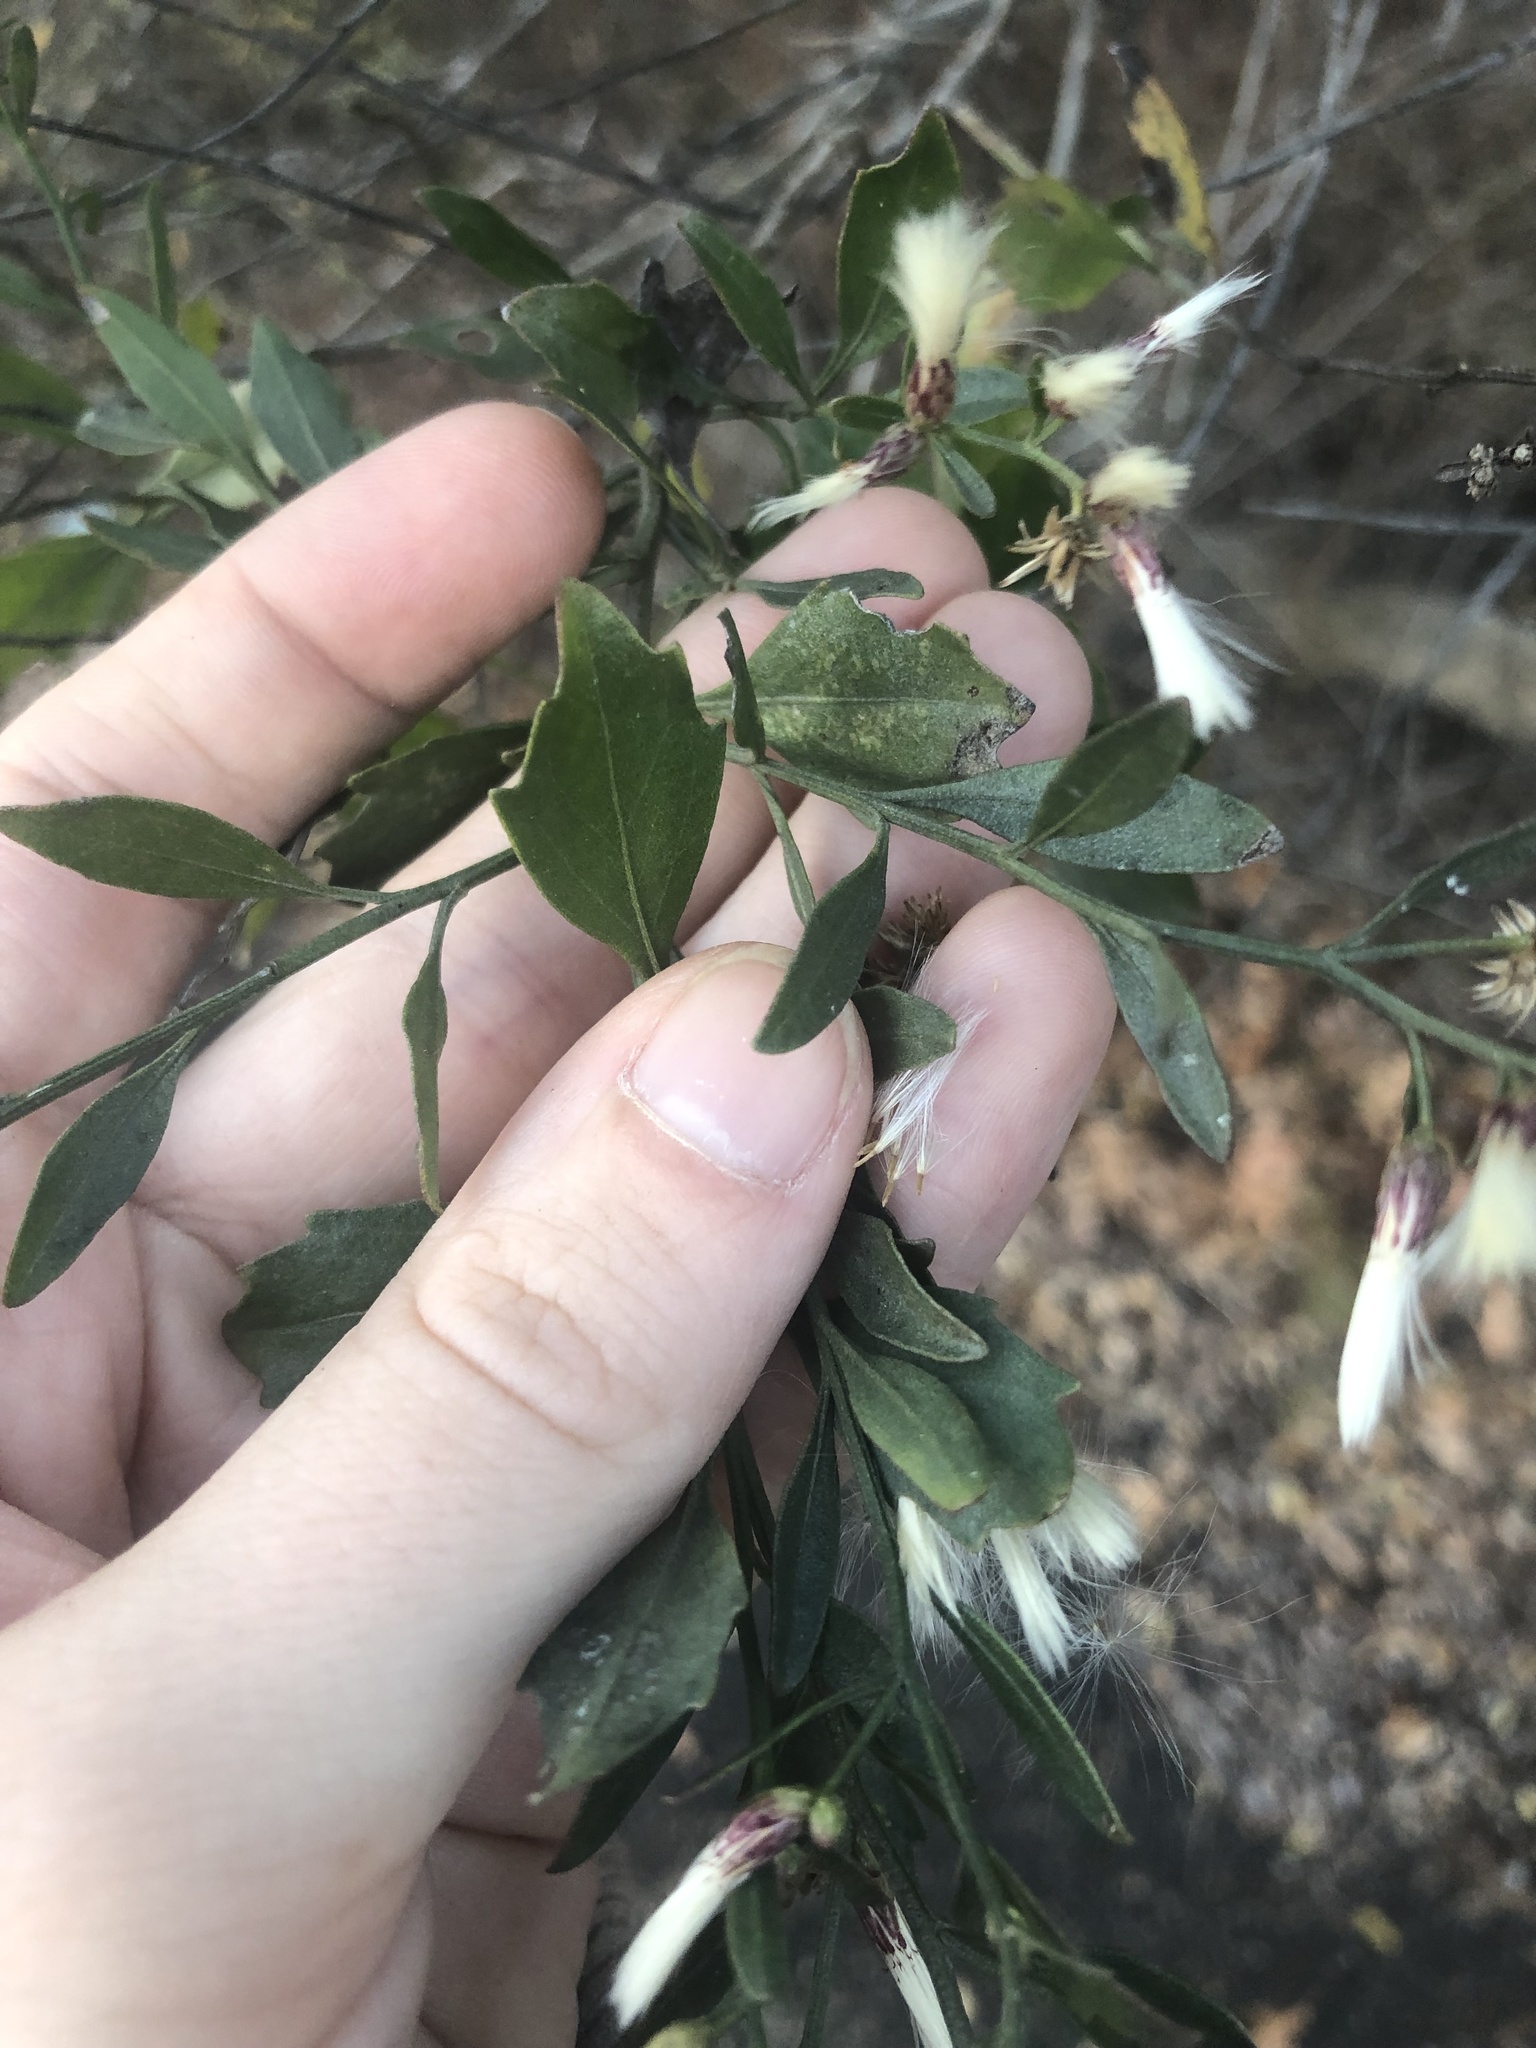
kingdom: Plantae
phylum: Tracheophyta
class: Magnoliopsida
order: Asterales
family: Asteraceae
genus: Baccharis
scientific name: Baccharis halimifolia
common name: Eastern baccharis
